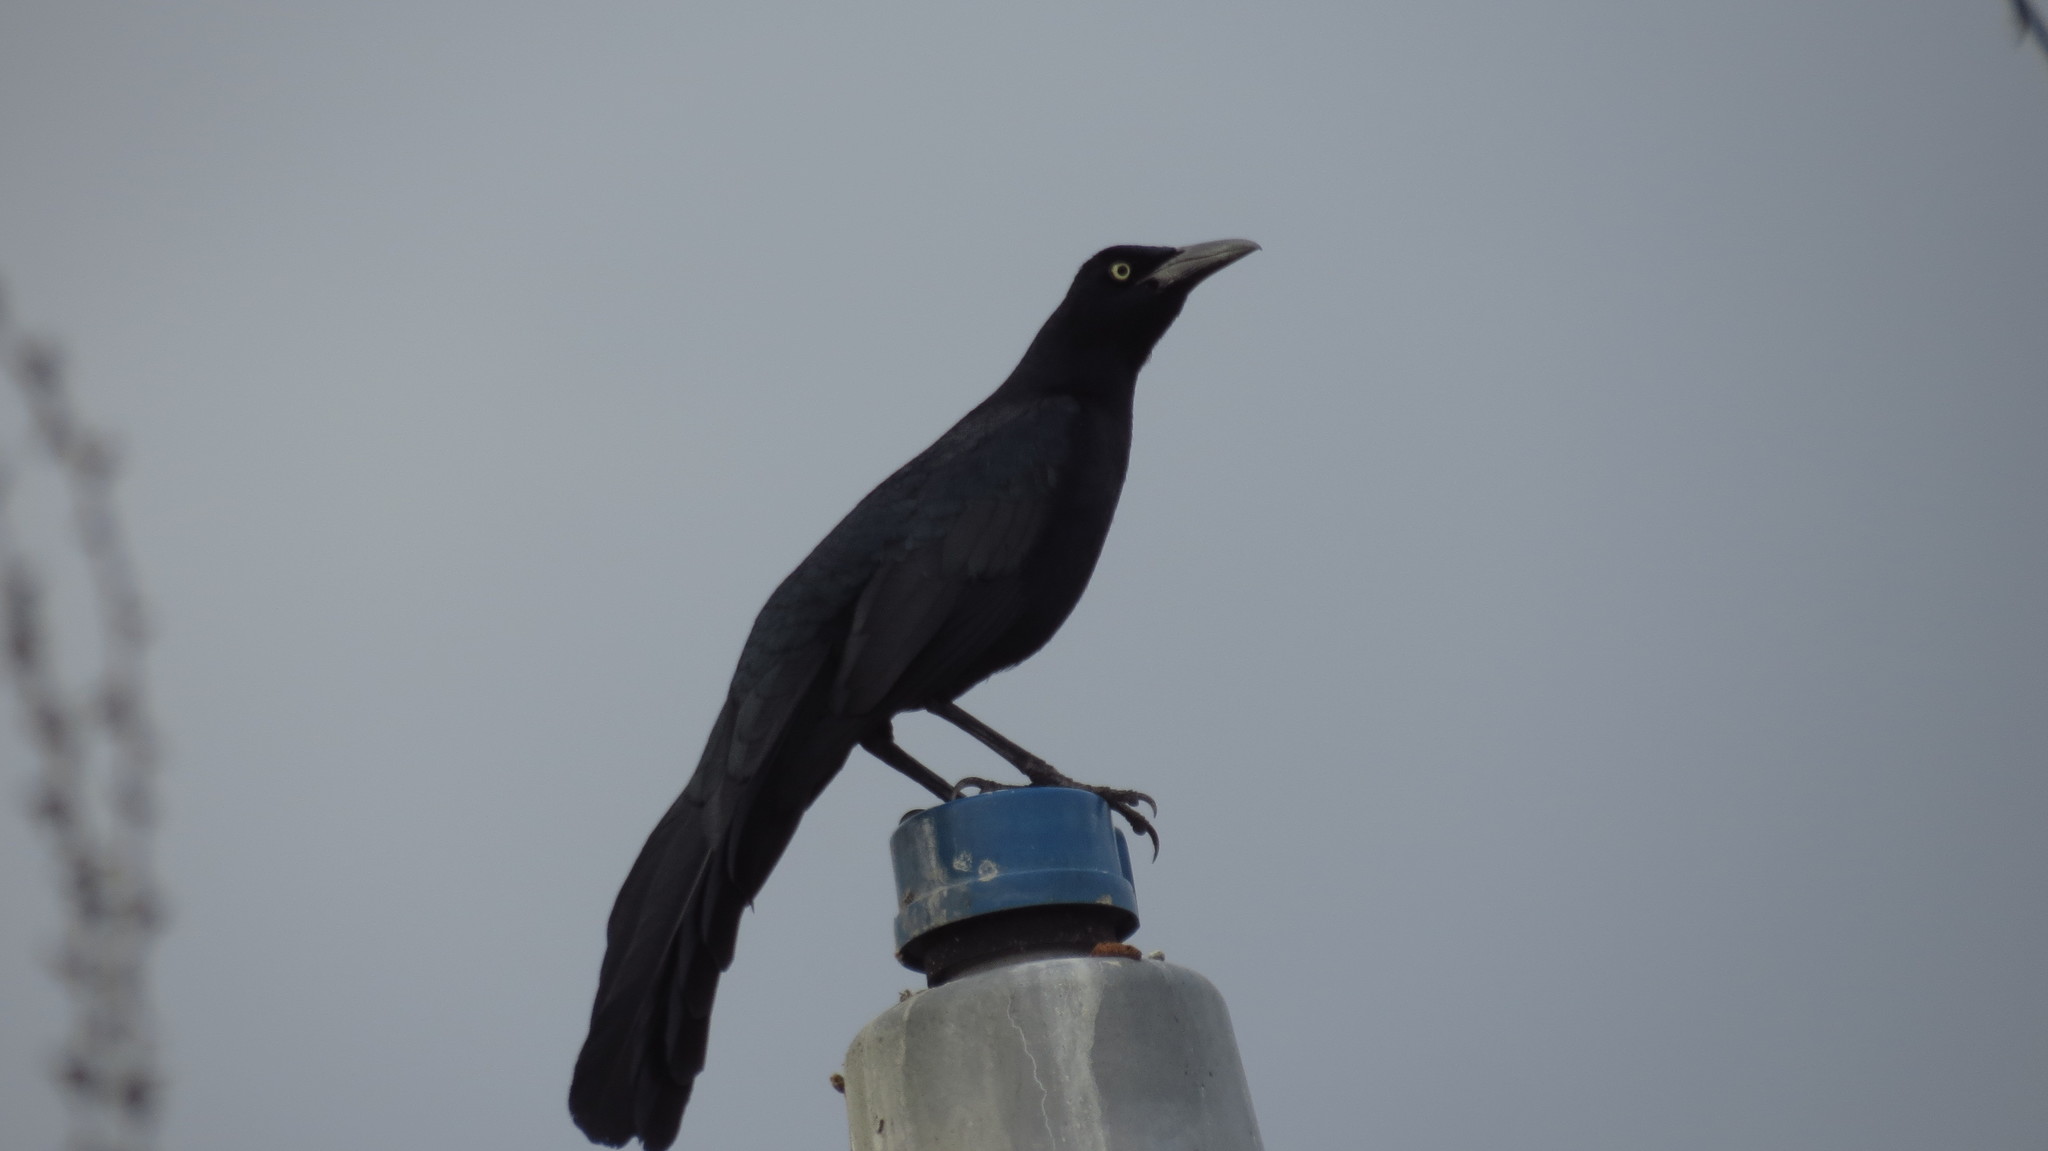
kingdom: Animalia
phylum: Chordata
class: Aves
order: Passeriformes
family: Icteridae
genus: Quiscalus
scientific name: Quiscalus mexicanus
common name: Great-tailed grackle
